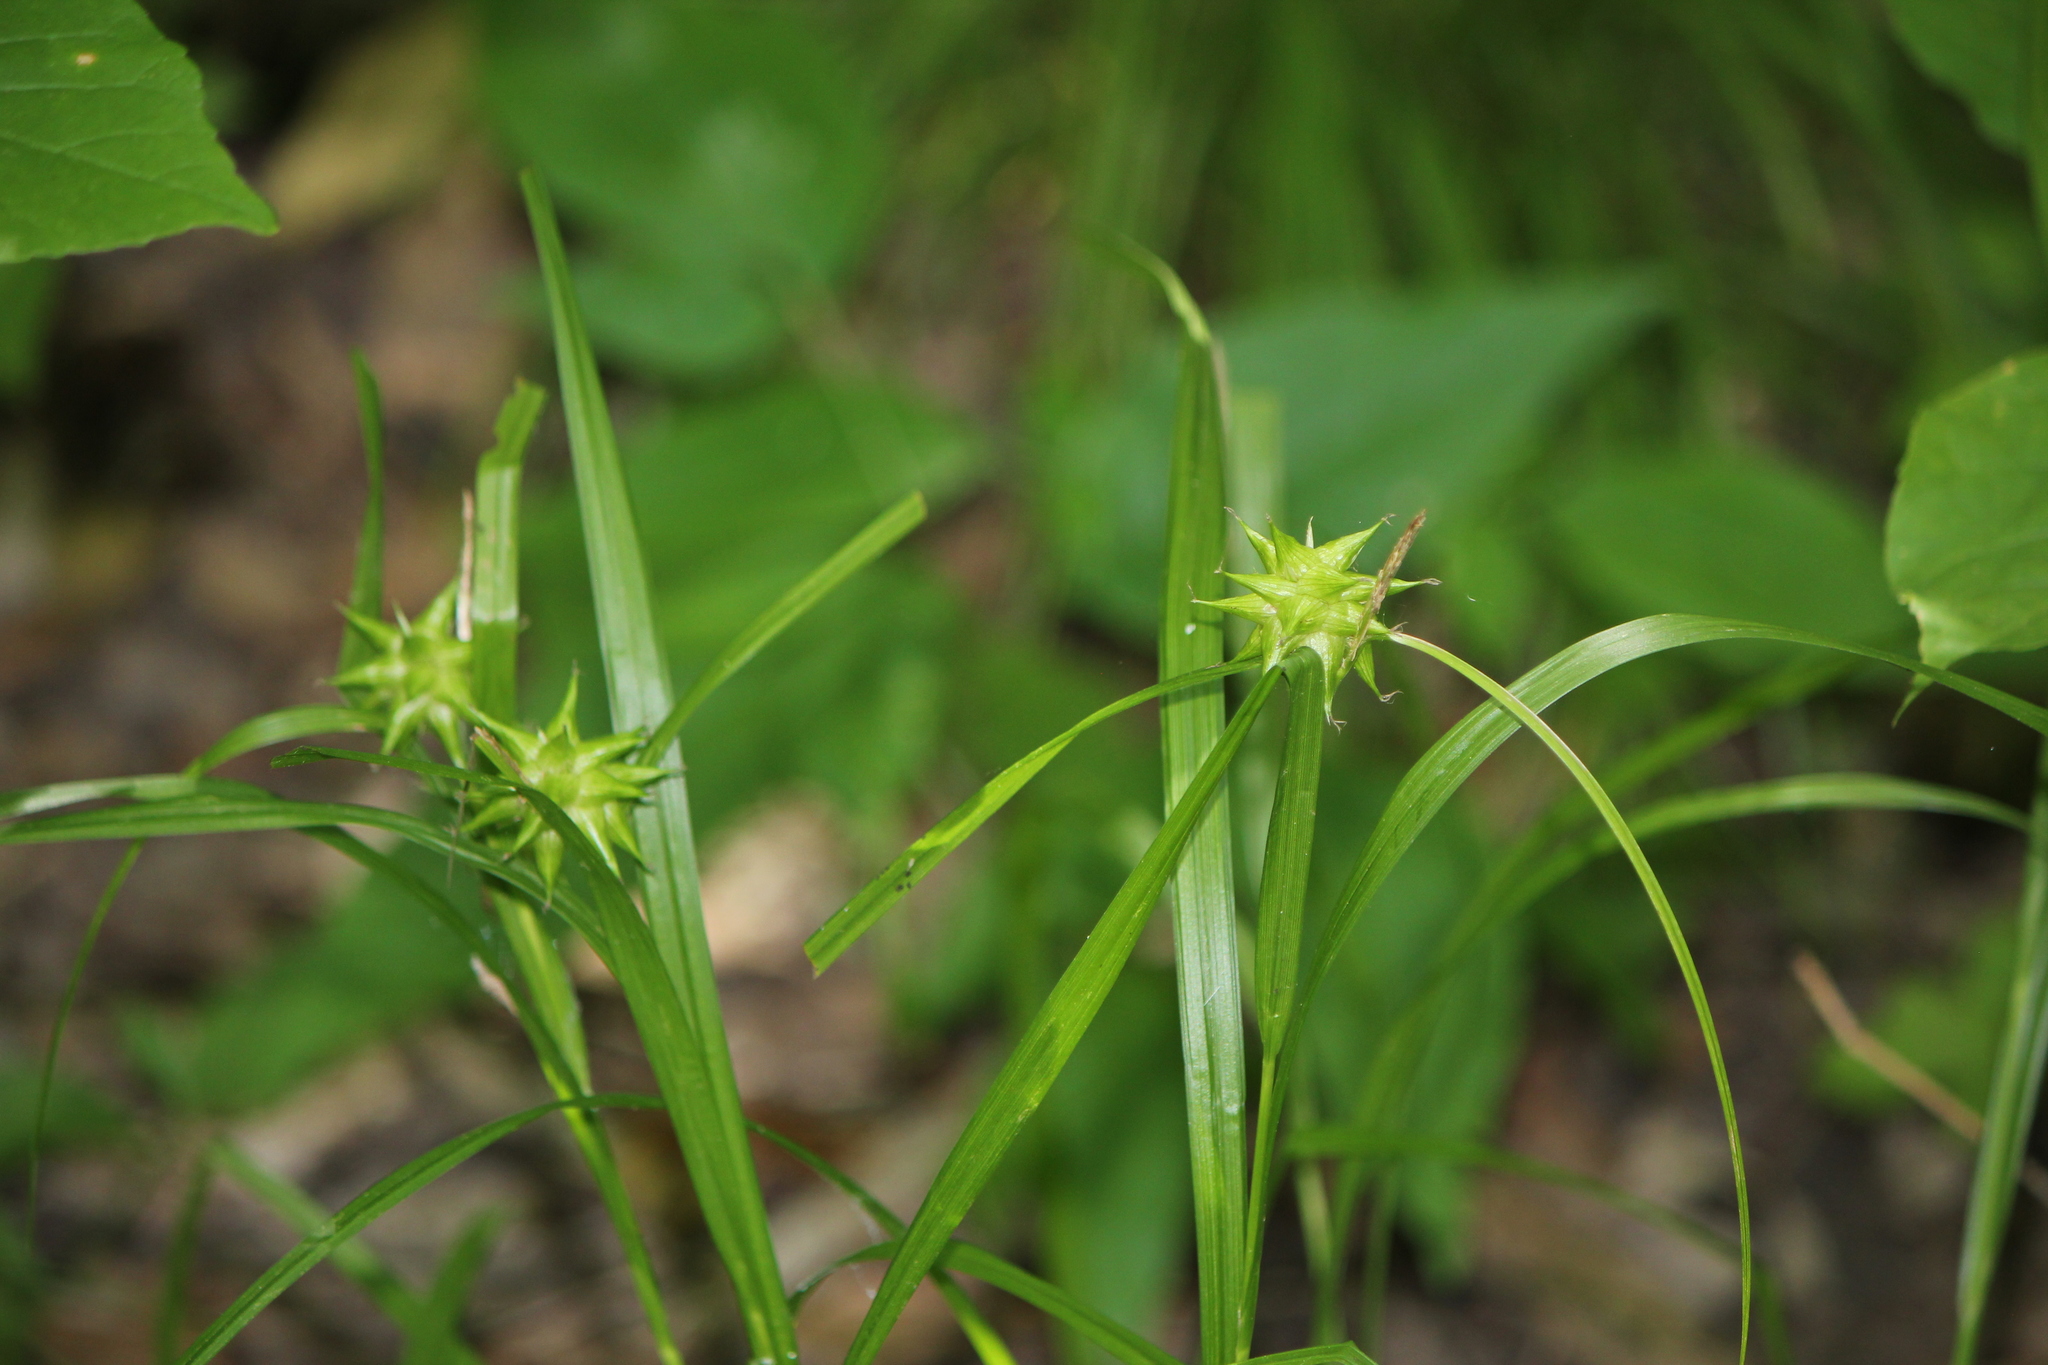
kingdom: Plantae
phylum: Tracheophyta
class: Liliopsida
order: Poales
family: Cyperaceae
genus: Carex
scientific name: Carex grayi
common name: Asa gray's sedge
